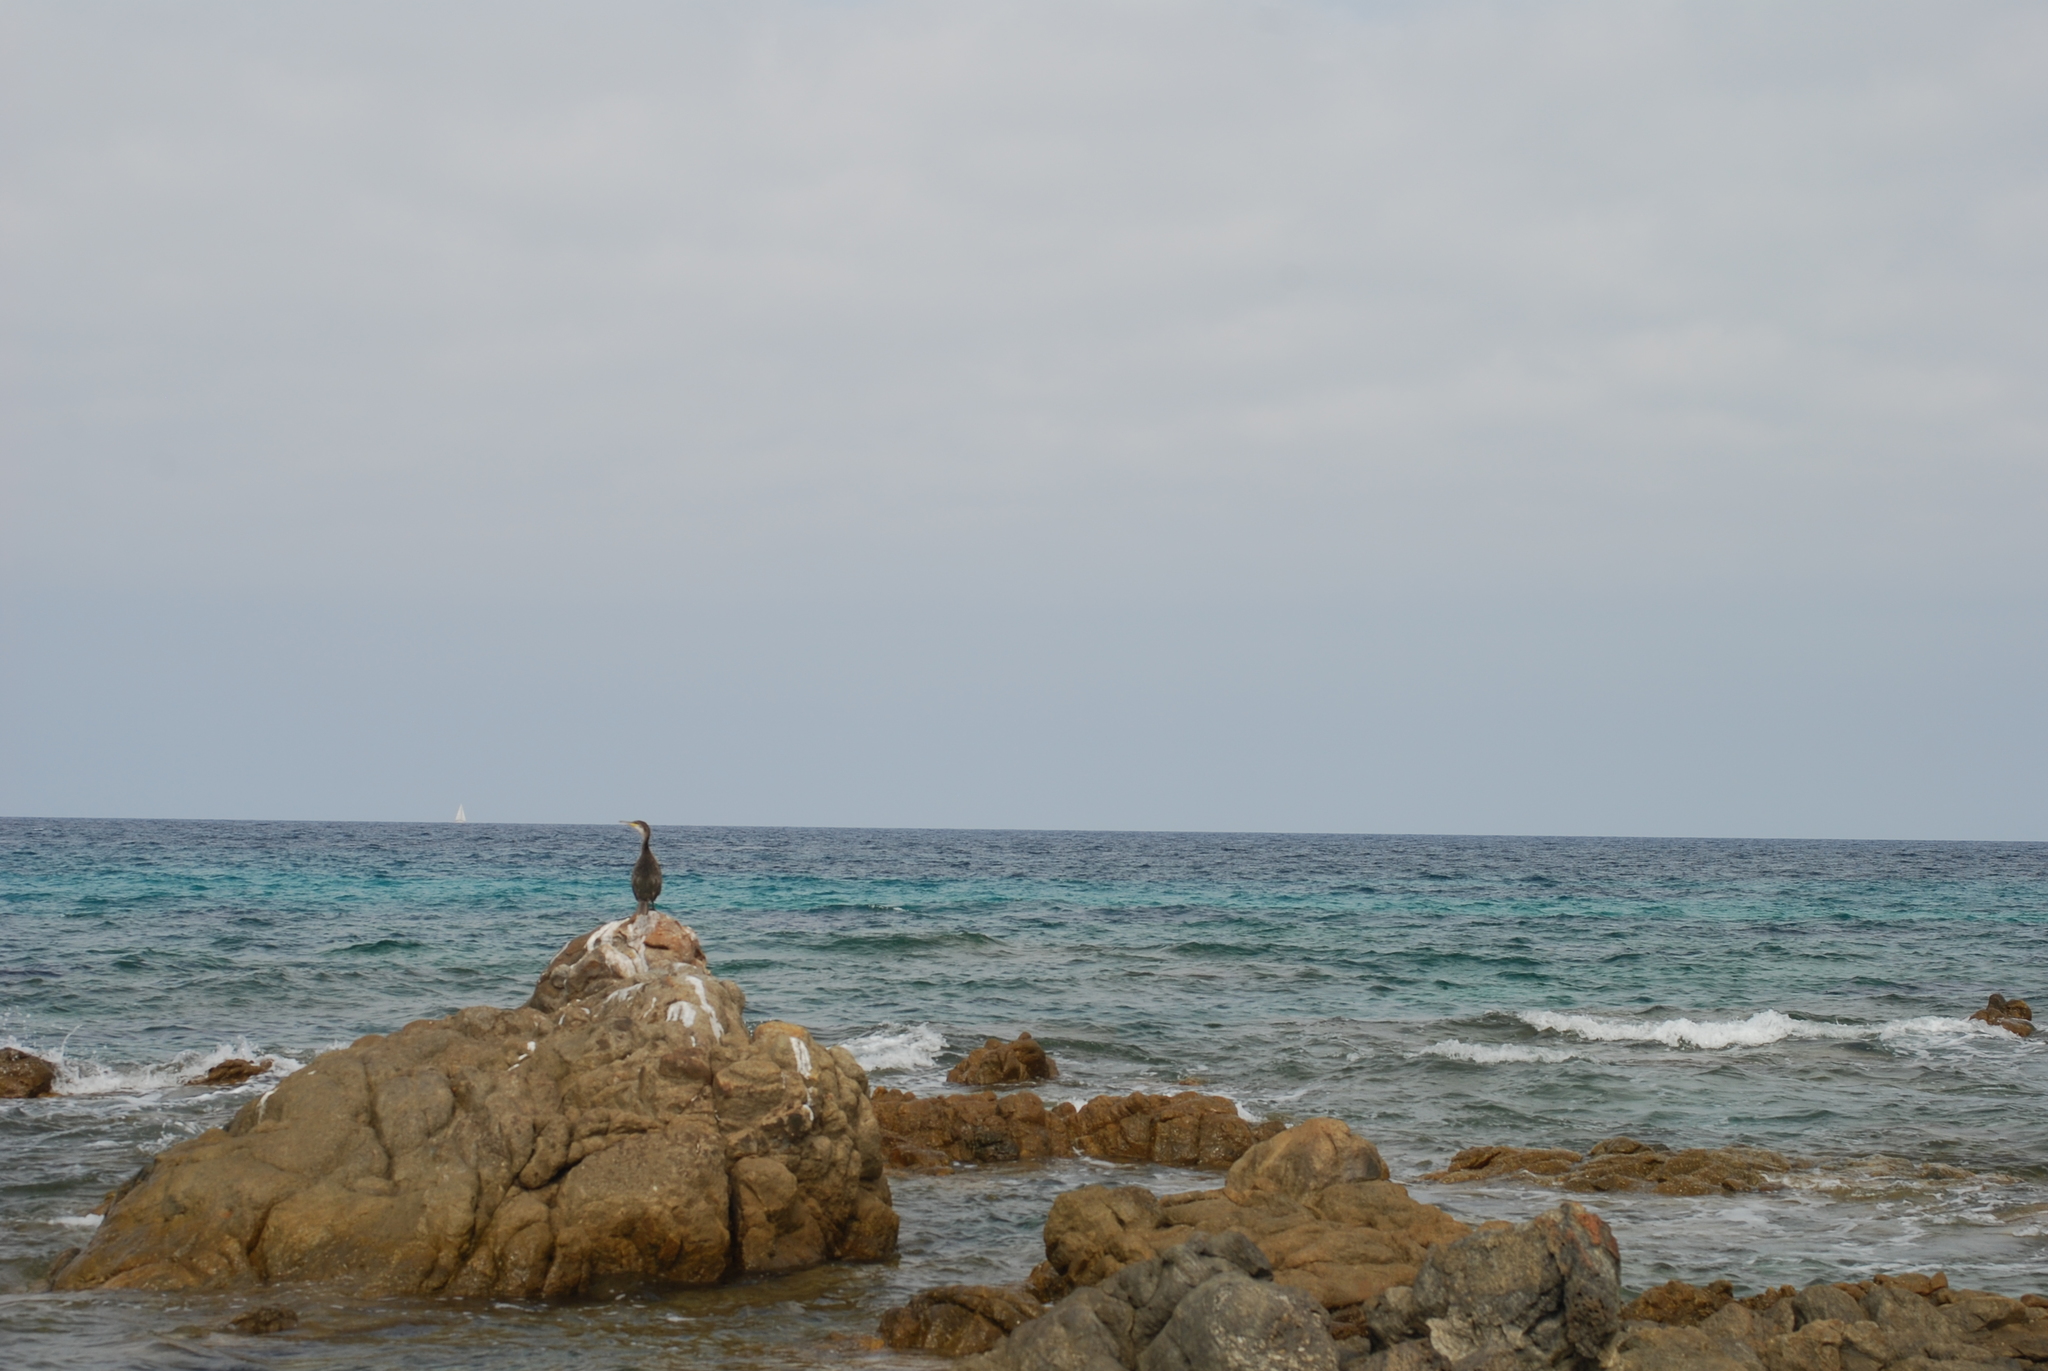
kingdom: Animalia
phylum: Chordata
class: Aves
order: Suliformes
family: Phalacrocoracidae
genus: Phalacrocorax
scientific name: Phalacrocorax aristotelis
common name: European shag
